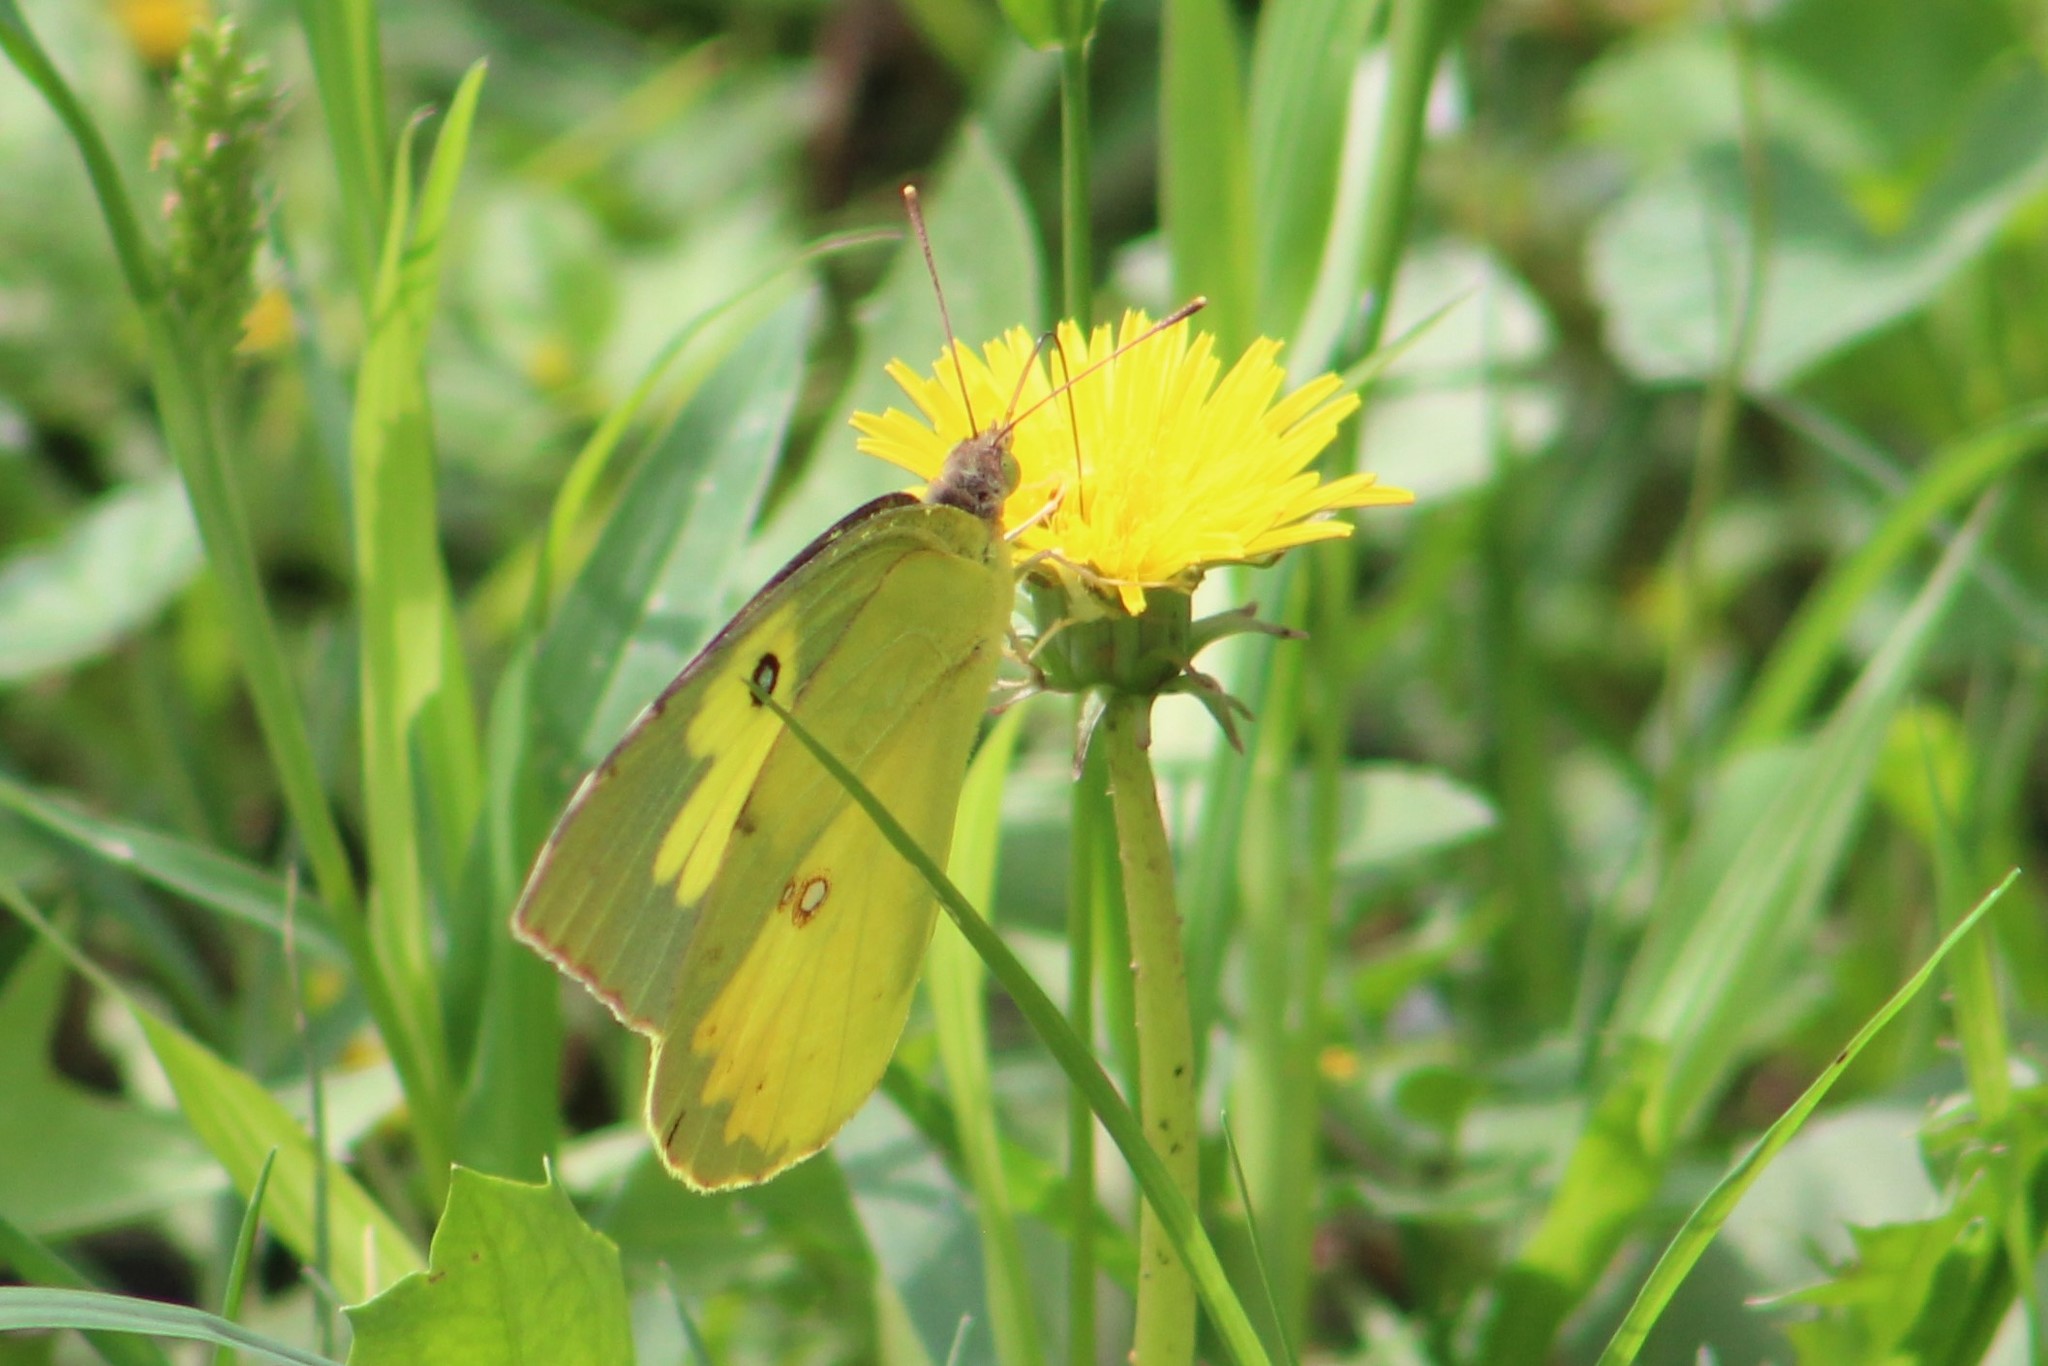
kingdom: Animalia
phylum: Arthropoda
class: Insecta
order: Lepidoptera
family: Pieridae
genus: Zerene
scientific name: Zerene cesonia
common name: Southern dogface
